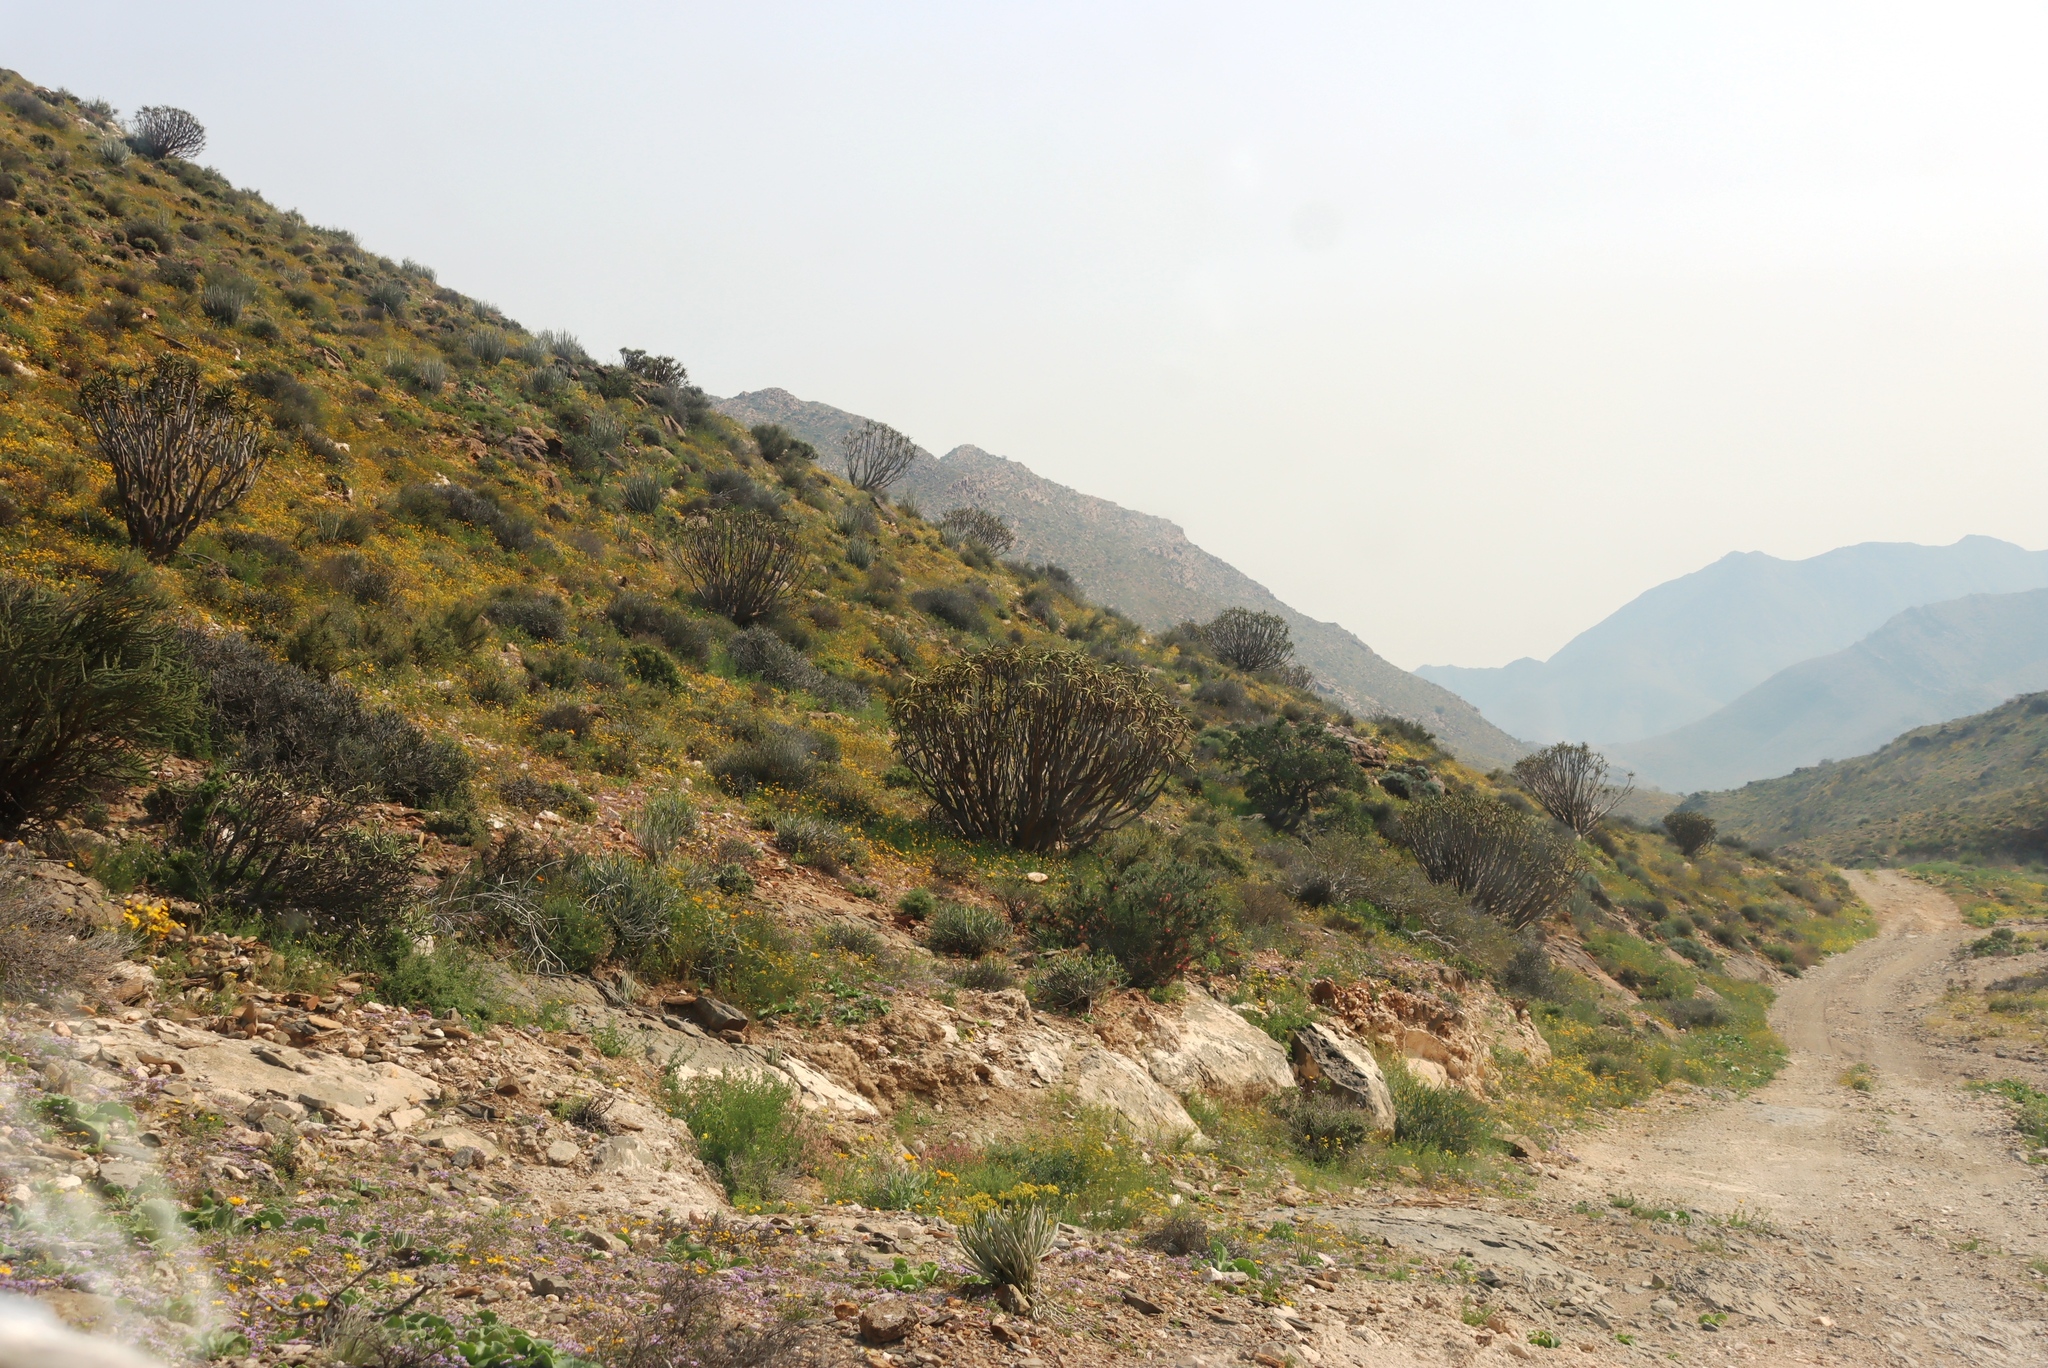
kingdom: Plantae
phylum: Tracheophyta
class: Liliopsida
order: Asparagales
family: Asphodelaceae
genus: Aloidendron
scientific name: Aloidendron ramosissimum
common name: Bush quiver tree
